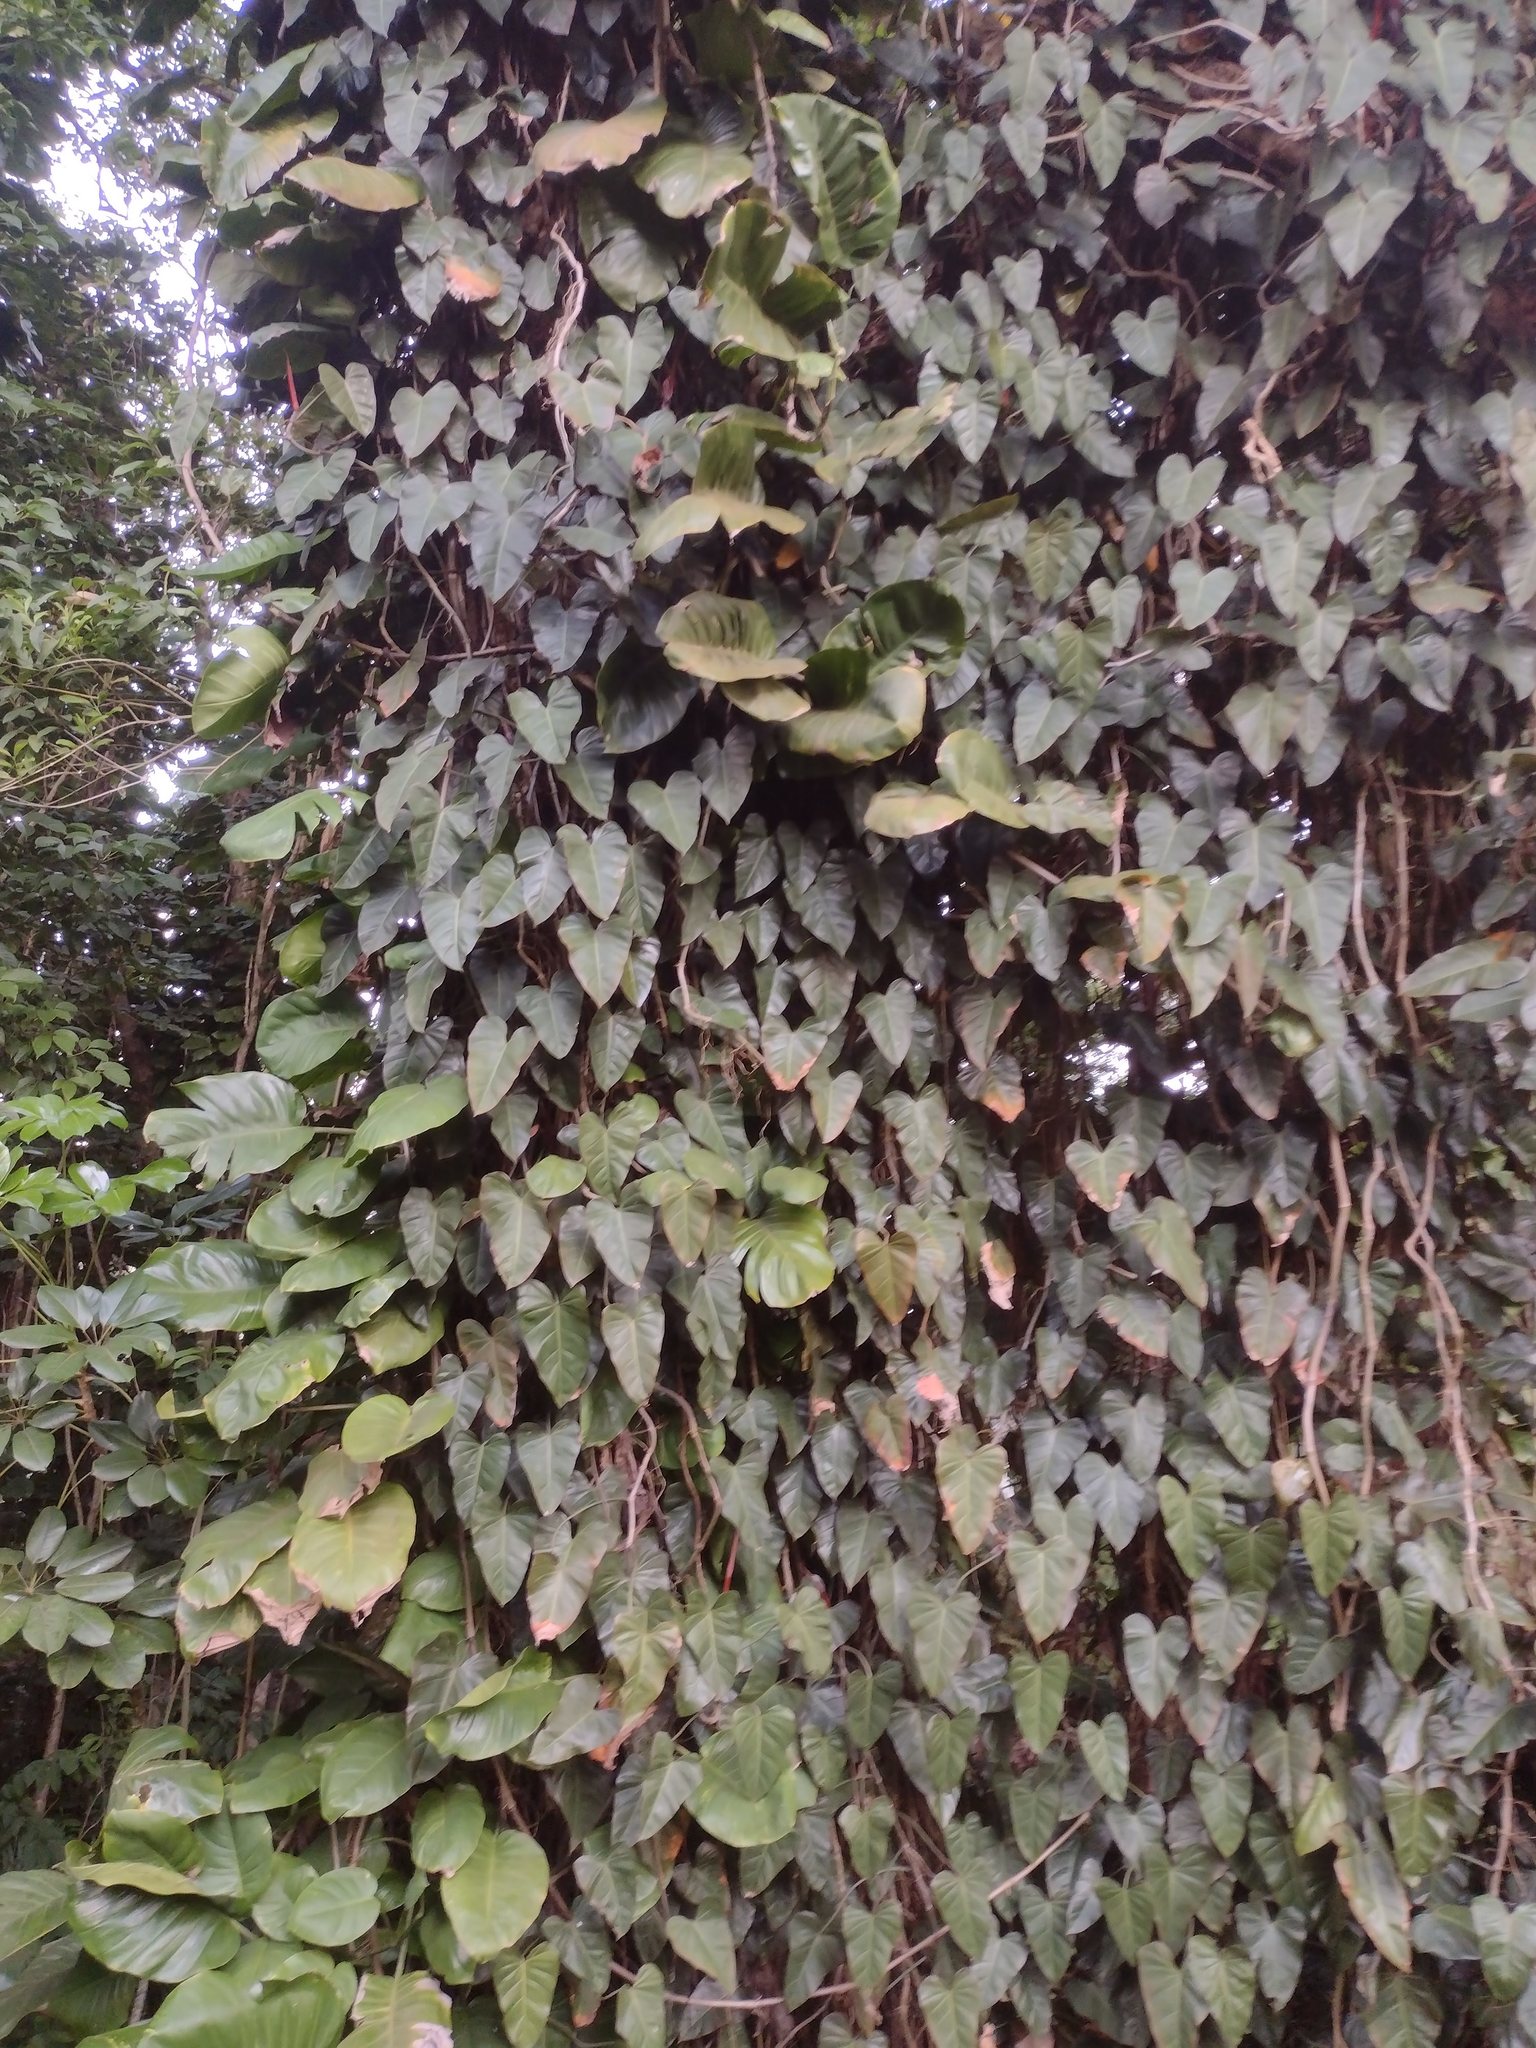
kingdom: Plantae
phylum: Tracheophyta
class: Liliopsida
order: Alismatales
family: Araceae
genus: Philodendron
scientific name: Philodendron erubescens
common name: Philodendron
